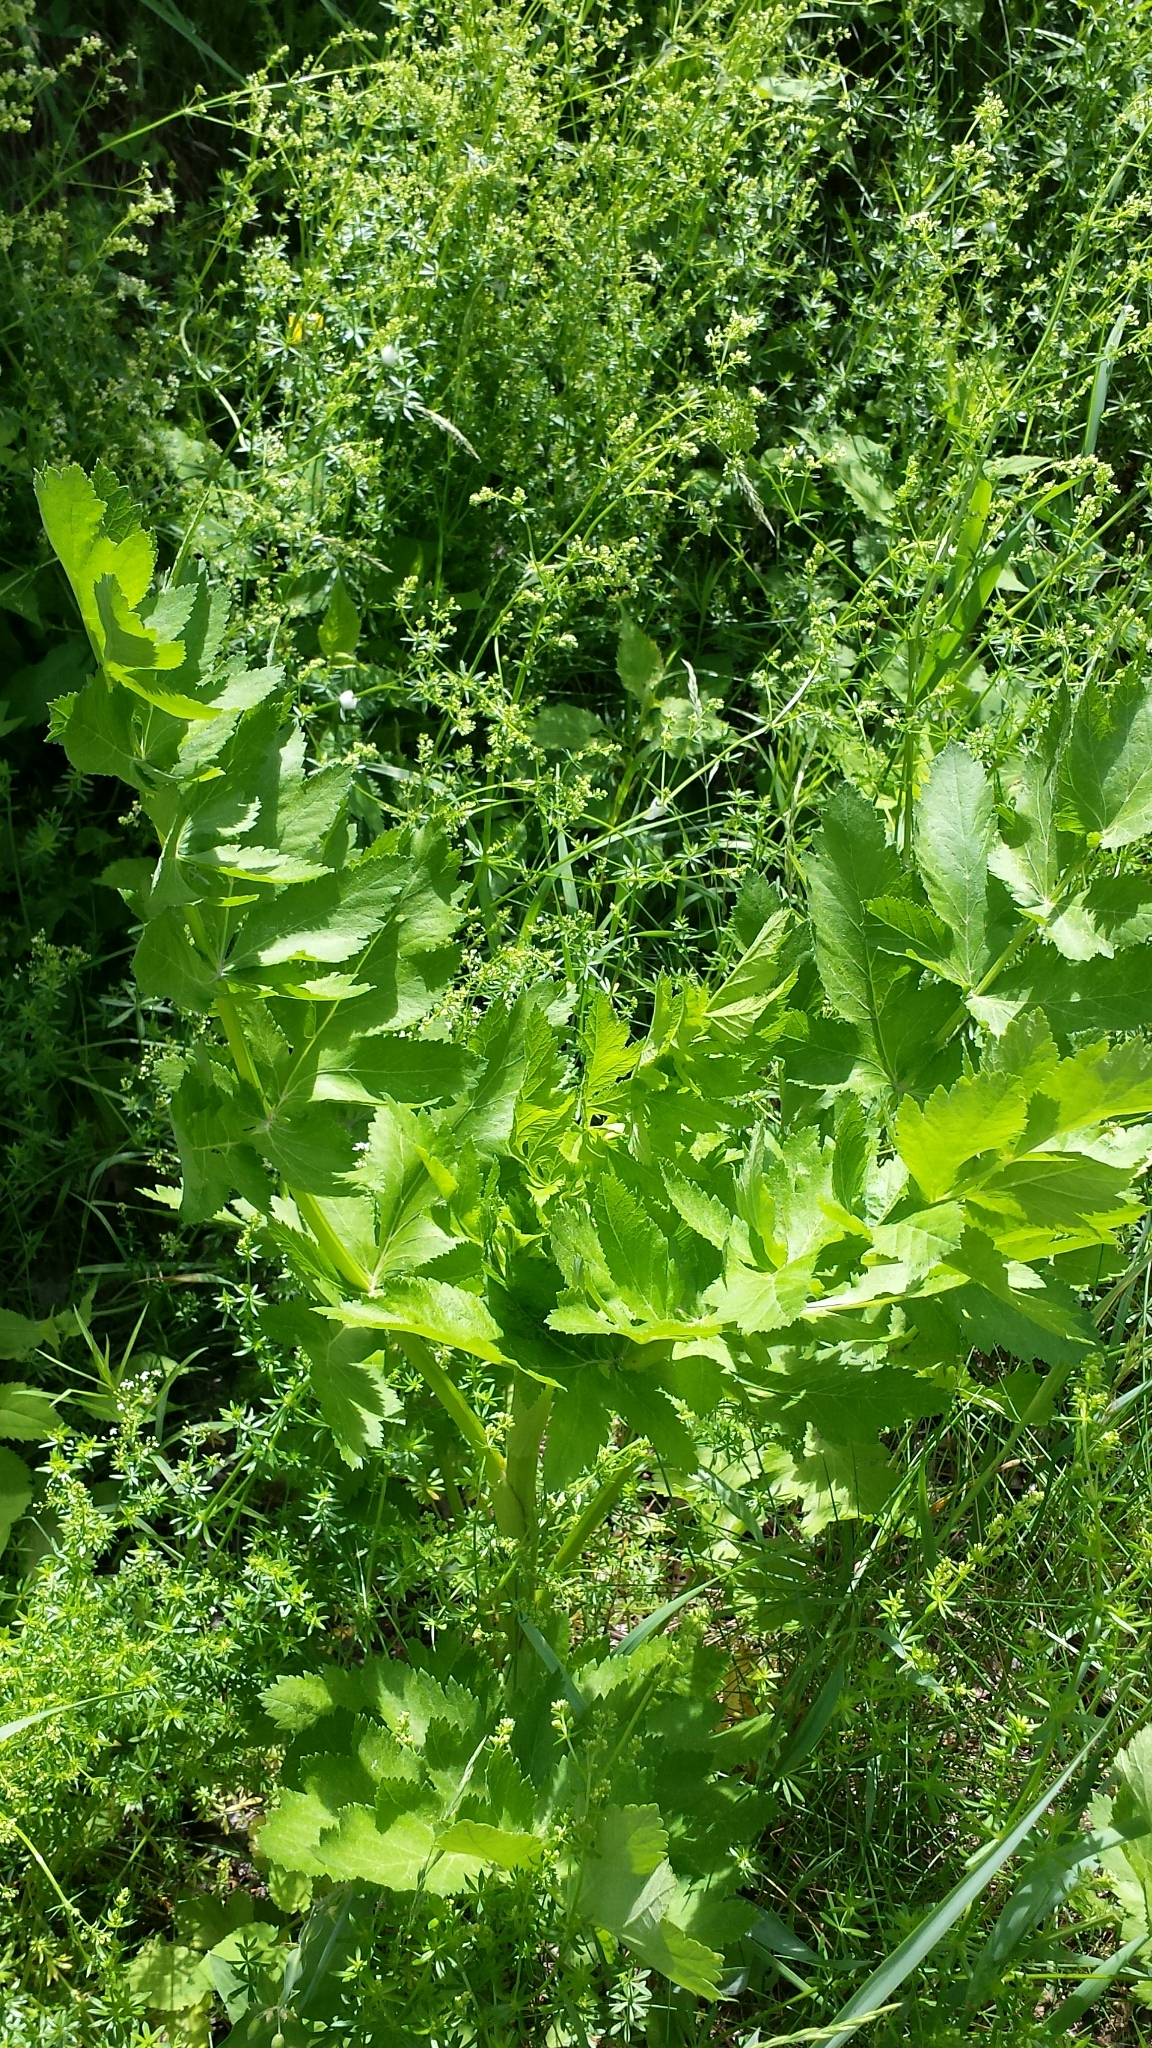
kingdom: Plantae
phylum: Tracheophyta
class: Magnoliopsida
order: Apiales
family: Apiaceae
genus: Pastinaca
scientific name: Pastinaca sativa
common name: Wild parsnip
